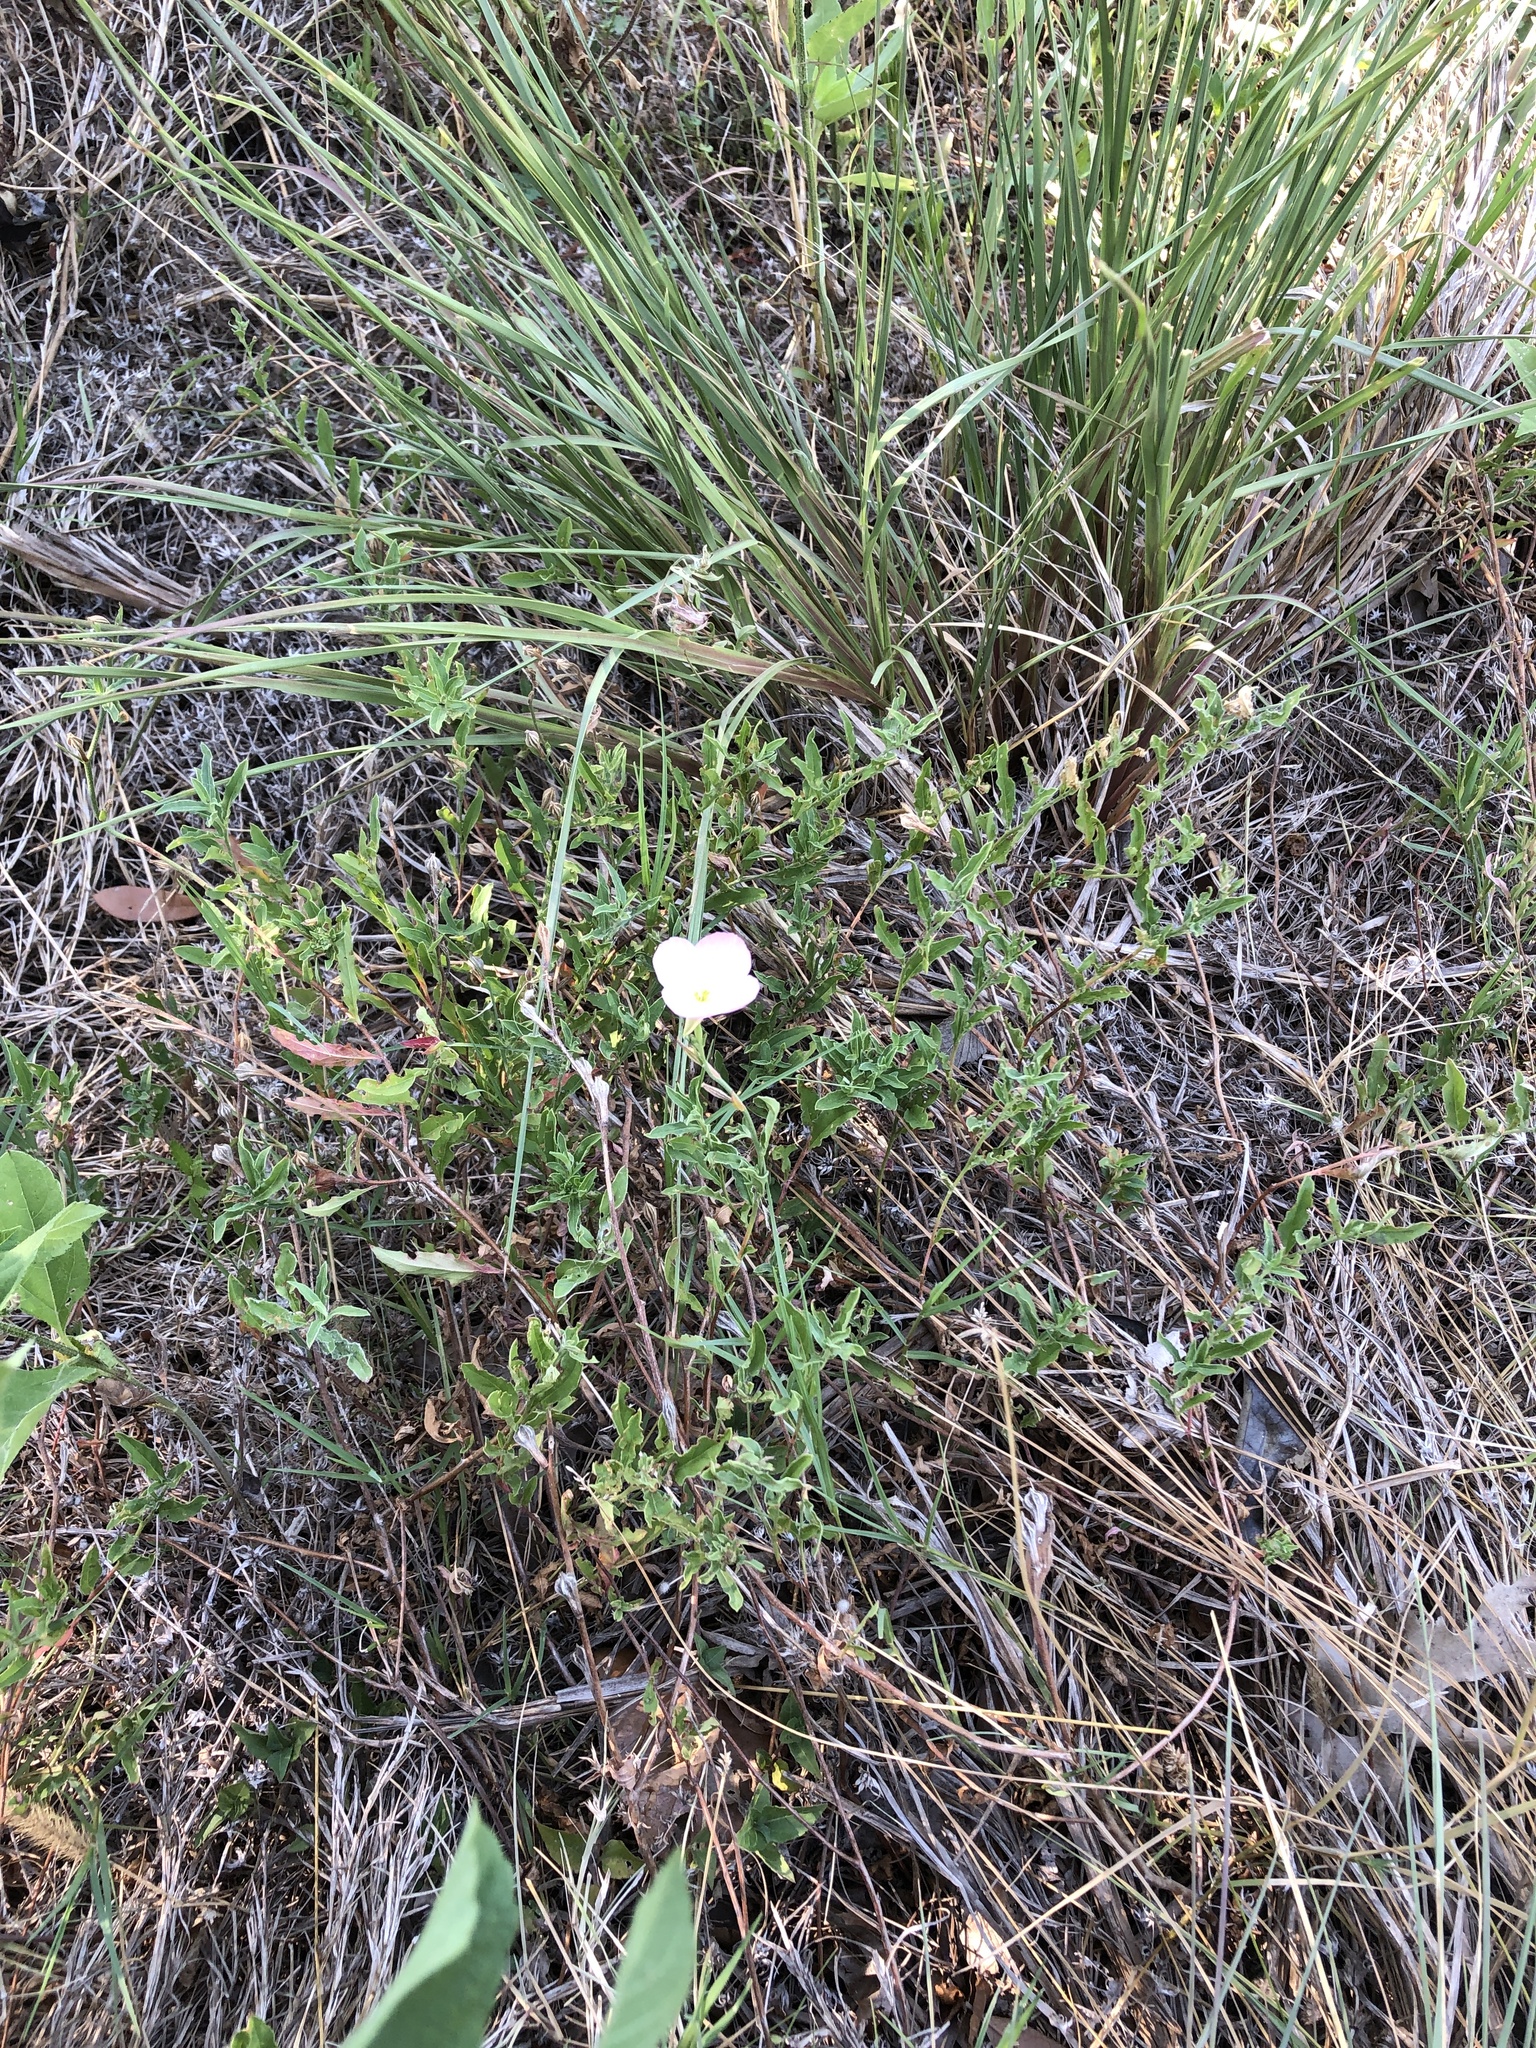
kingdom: Plantae
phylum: Tracheophyta
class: Magnoliopsida
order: Myrtales
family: Onagraceae
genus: Oenothera
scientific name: Oenothera speciosa
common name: White evening-primrose
